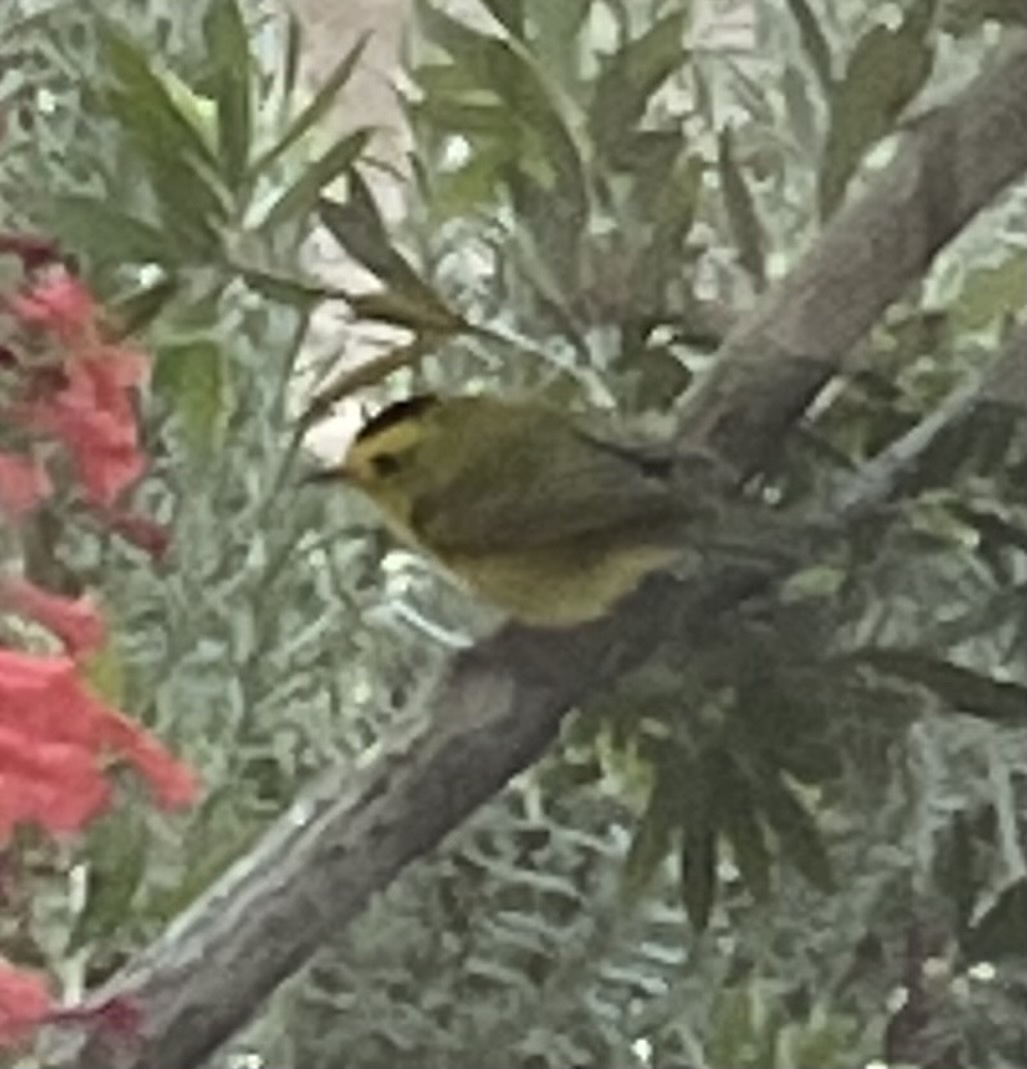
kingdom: Animalia
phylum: Chordata
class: Aves
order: Passeriformes
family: Parulidae
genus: Cardellina
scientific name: Cardellina pusilla
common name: Wilson's warbler
